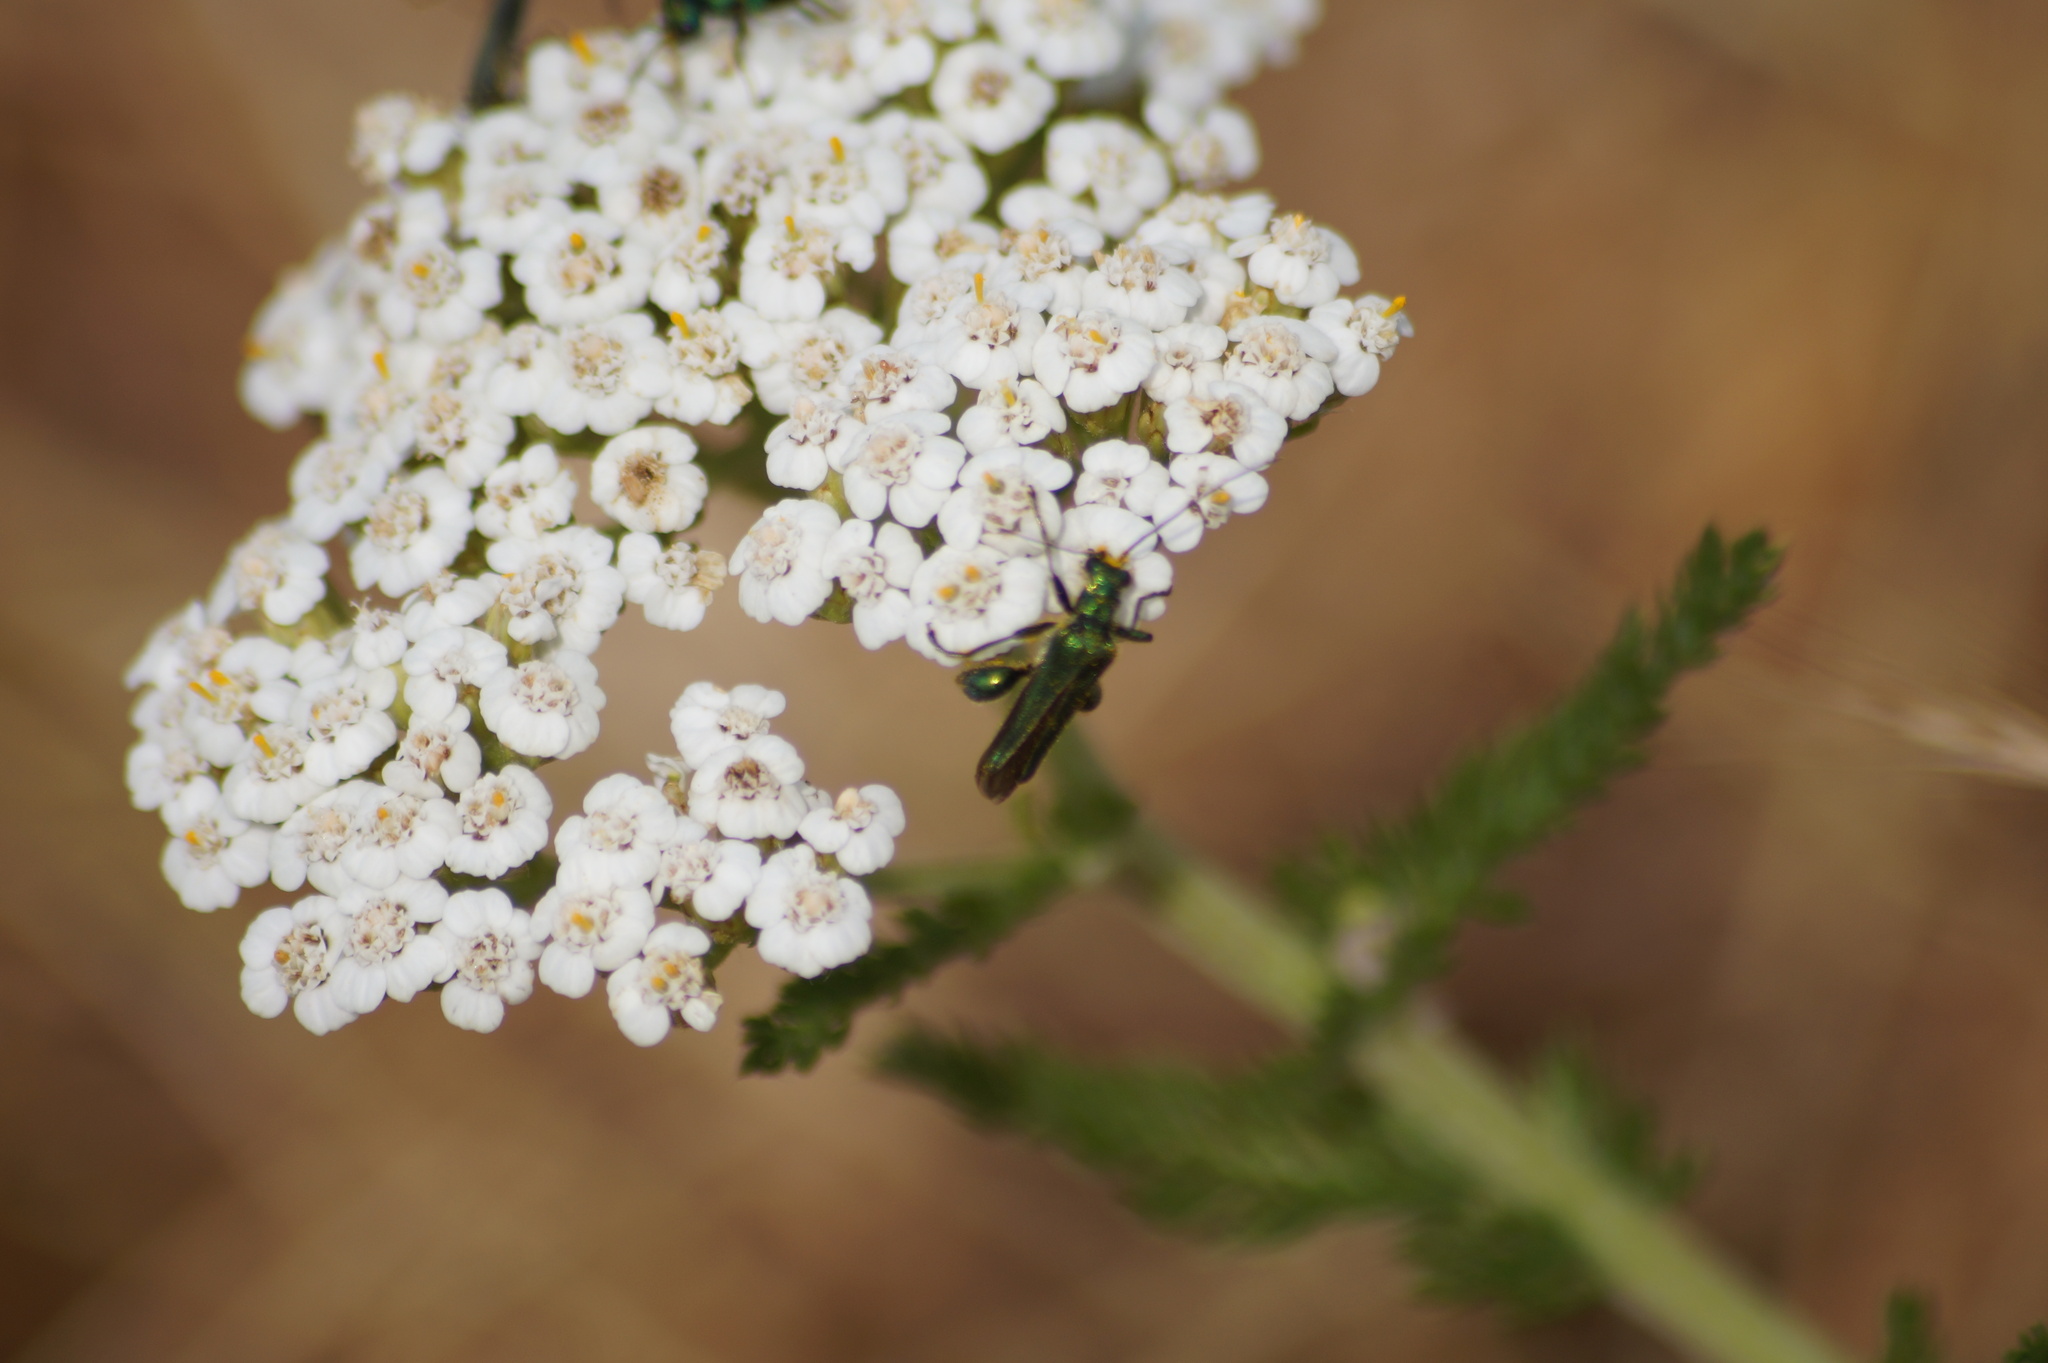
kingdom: Animalia
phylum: Arthropoda
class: Insecta
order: Coleoptera
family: Oedemeridae
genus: Oedemera
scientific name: Oedemera nobilis
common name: Swollen-thighed beetle
